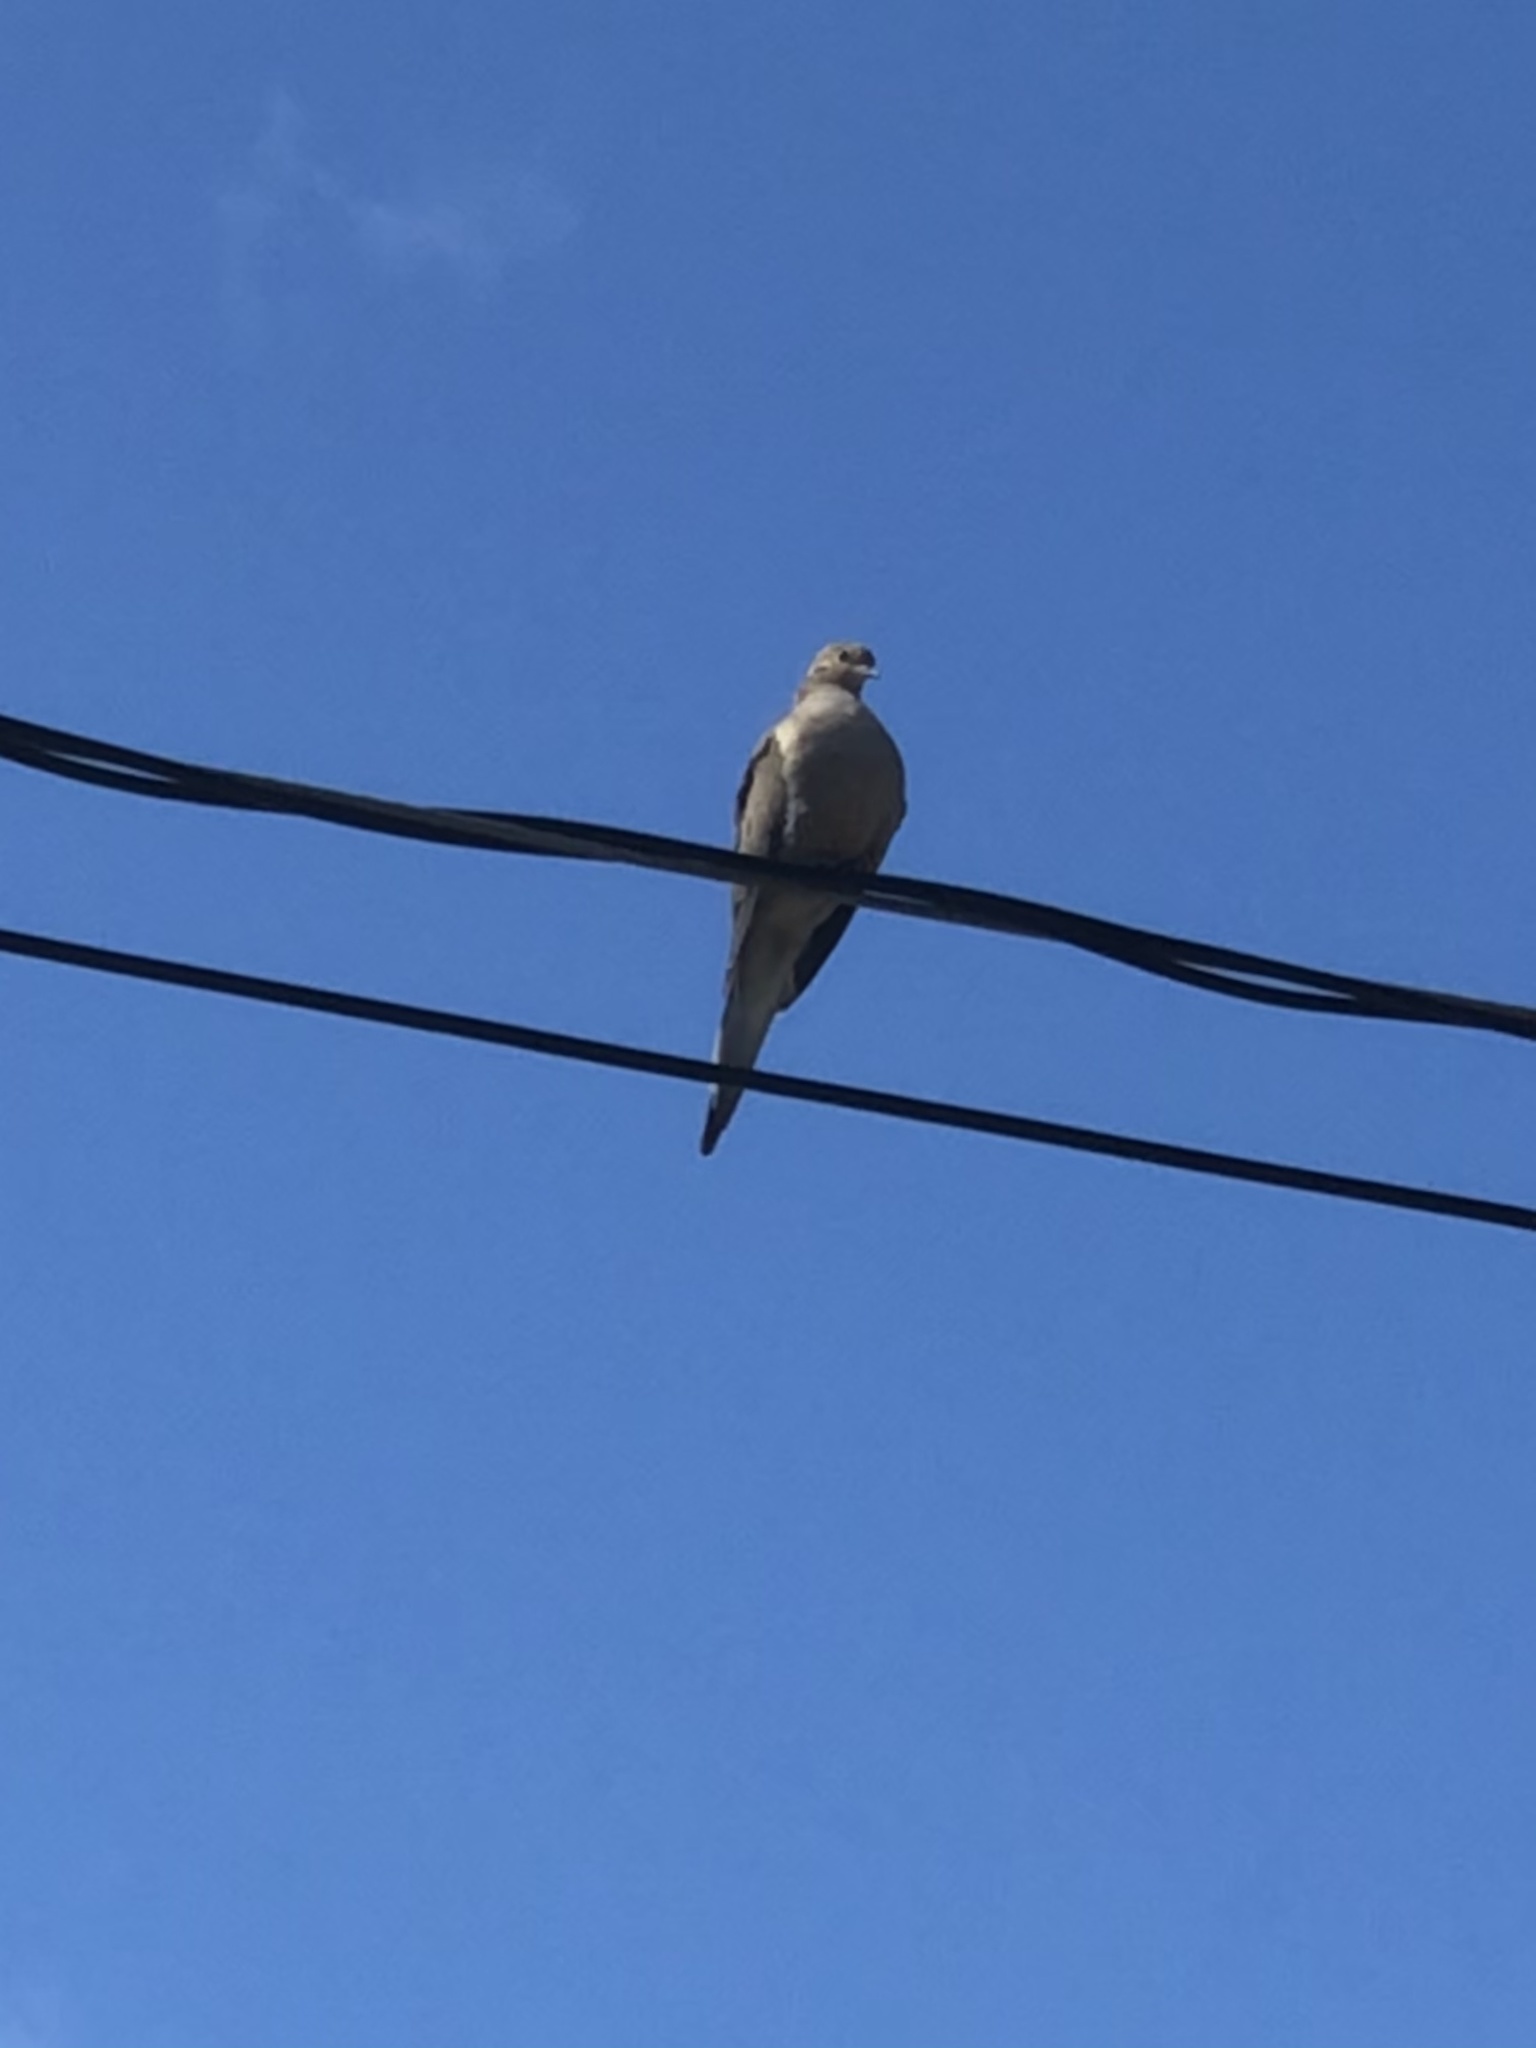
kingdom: Animalia
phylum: Chordata
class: Aves
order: Columbiformes
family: Columbidae
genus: Zenaida
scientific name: Zenaida macroura
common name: Mourning dove
